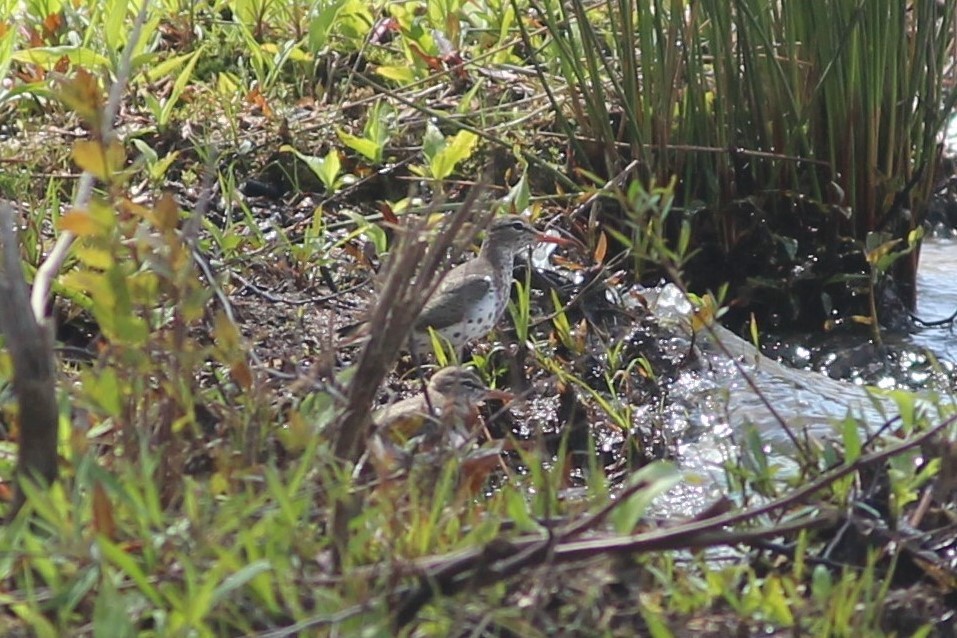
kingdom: Animalia
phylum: Chordata
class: Aves
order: Charadriiformes
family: Scolopacidae
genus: Actitis
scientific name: Actitis macularius
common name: Spotted sandpiper
